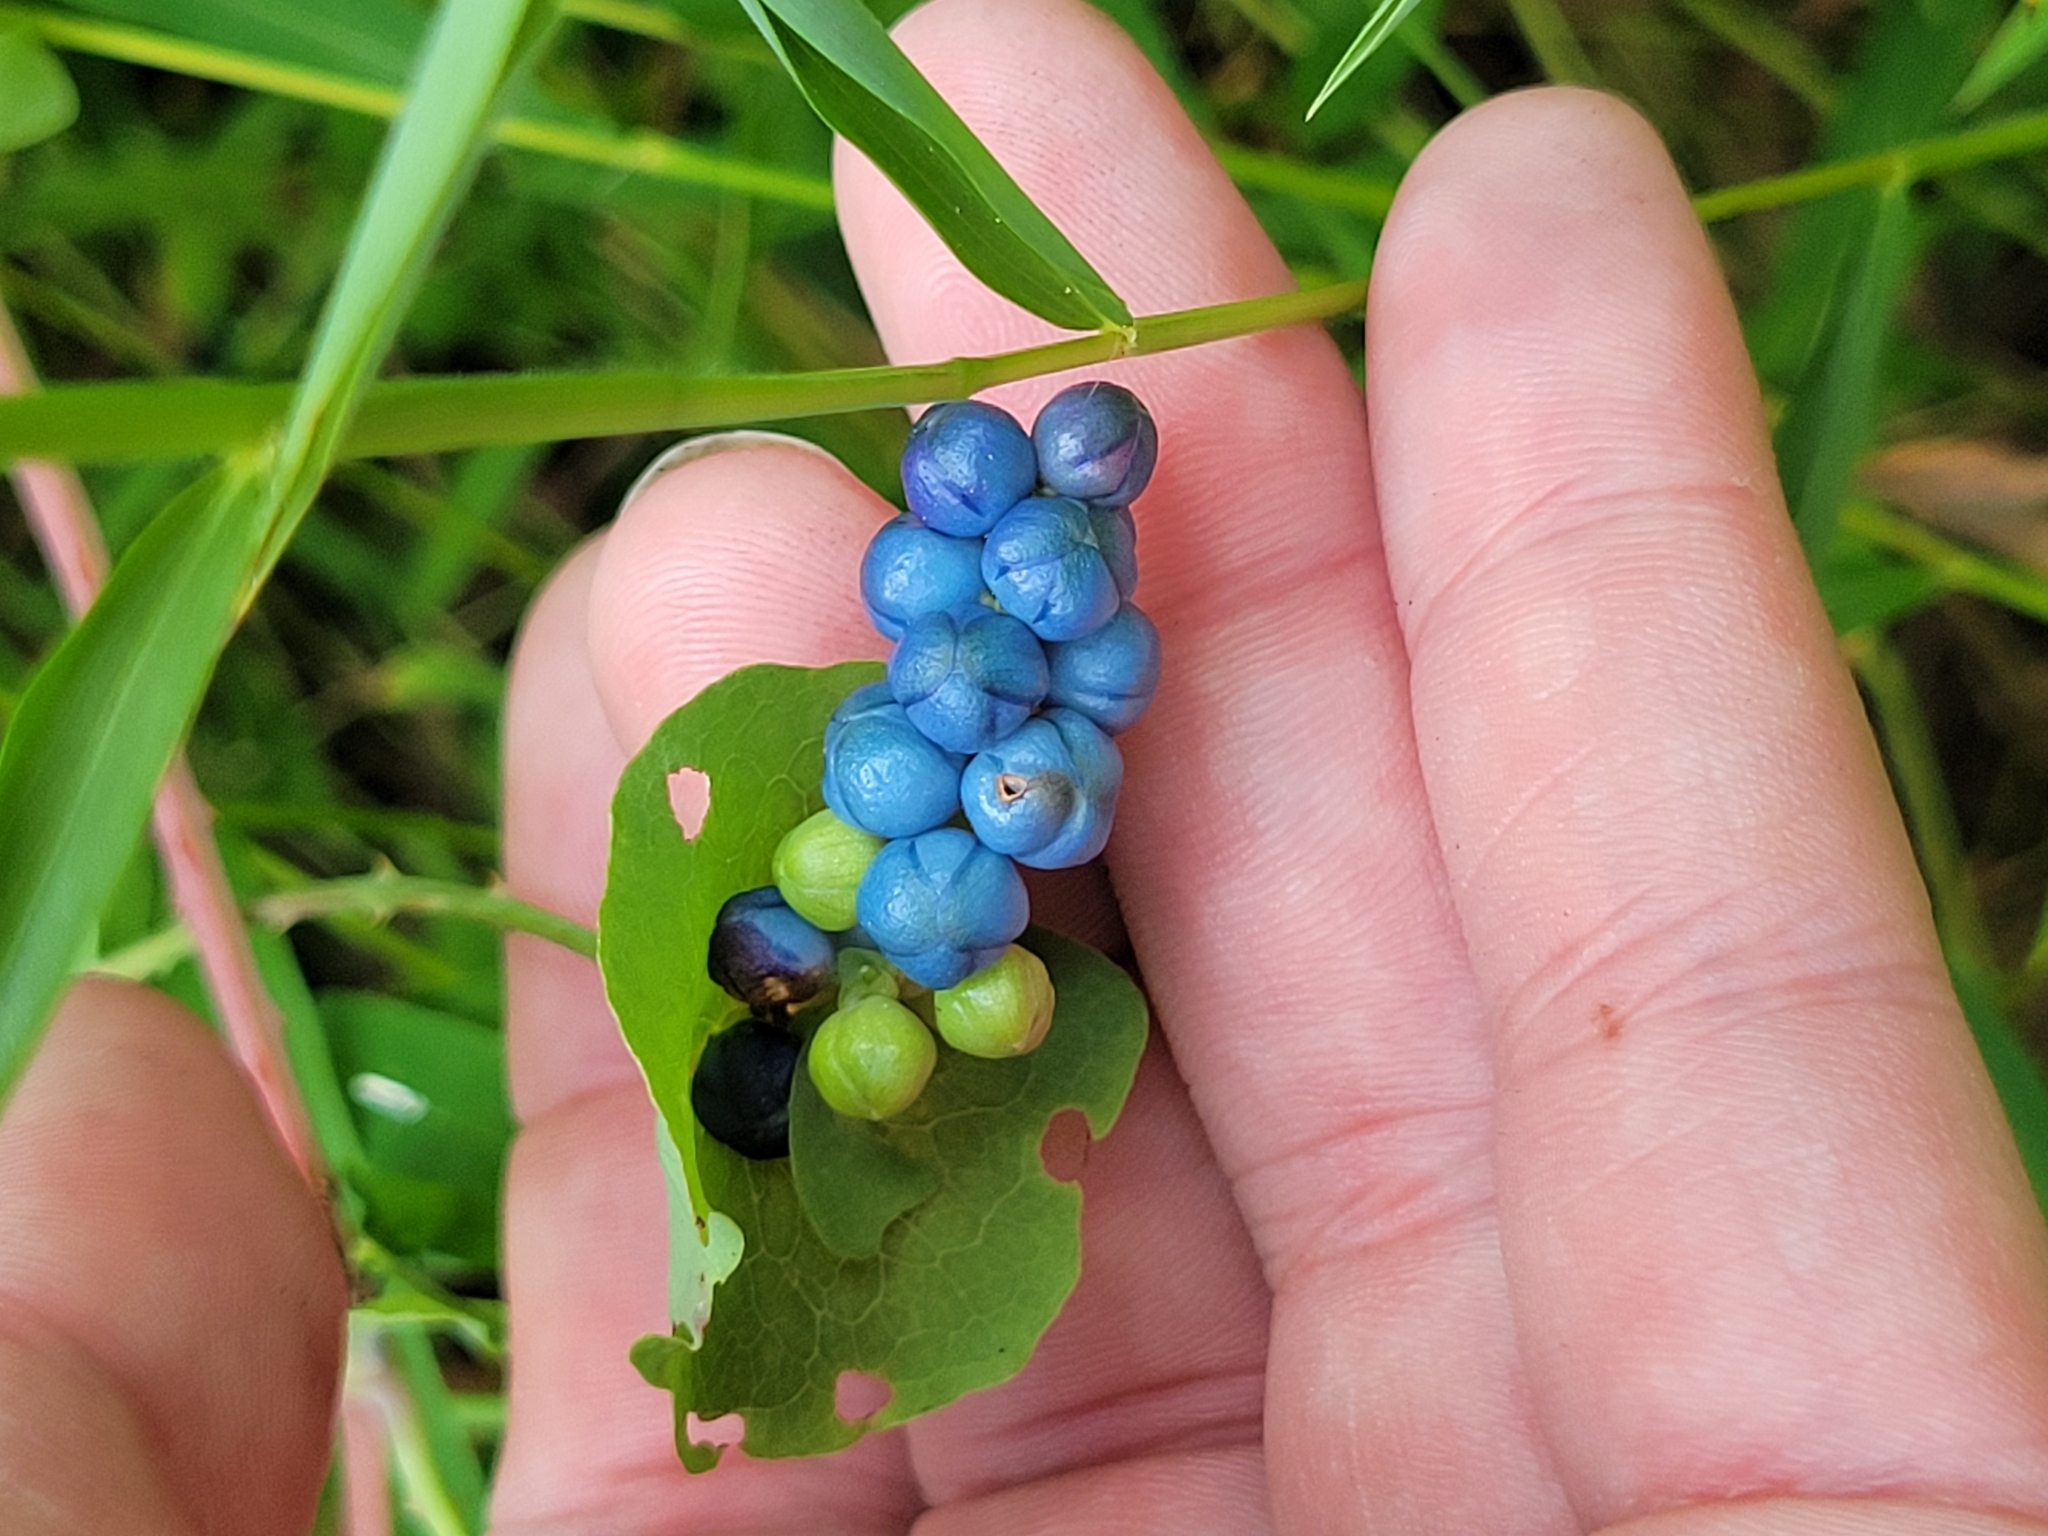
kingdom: Plantae
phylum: Tracheophyta
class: Magnoliopsida
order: Caryophyllales
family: Polygonaceae
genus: Persicaria
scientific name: Persicaria perfoliata
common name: Asiatic tearthumb
